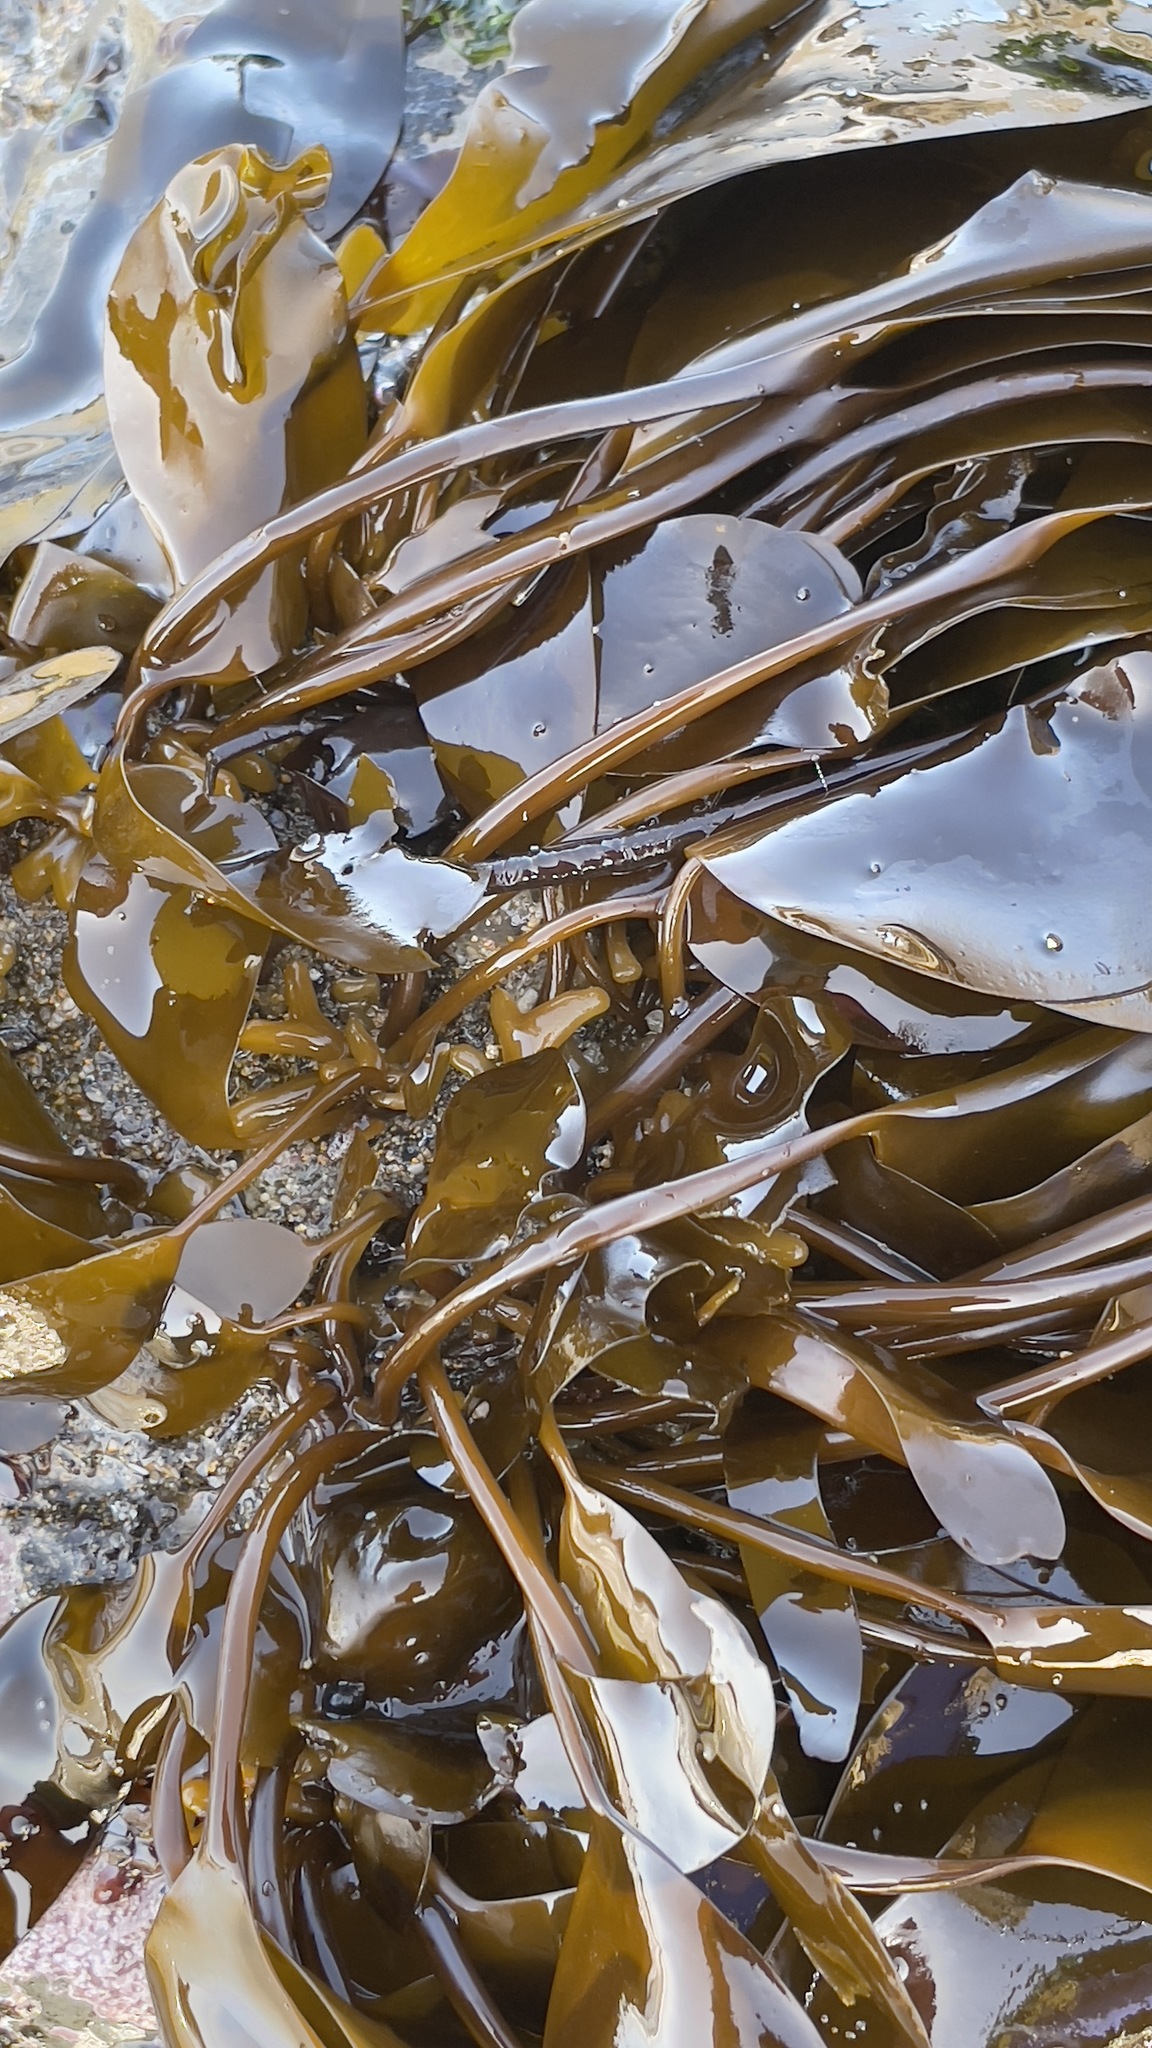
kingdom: Chromista
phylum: Ochrophyta
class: Phaeophyceae
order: Laminariales
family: Laminariaceae
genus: Laminaria
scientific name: Laminaria sinclairii
